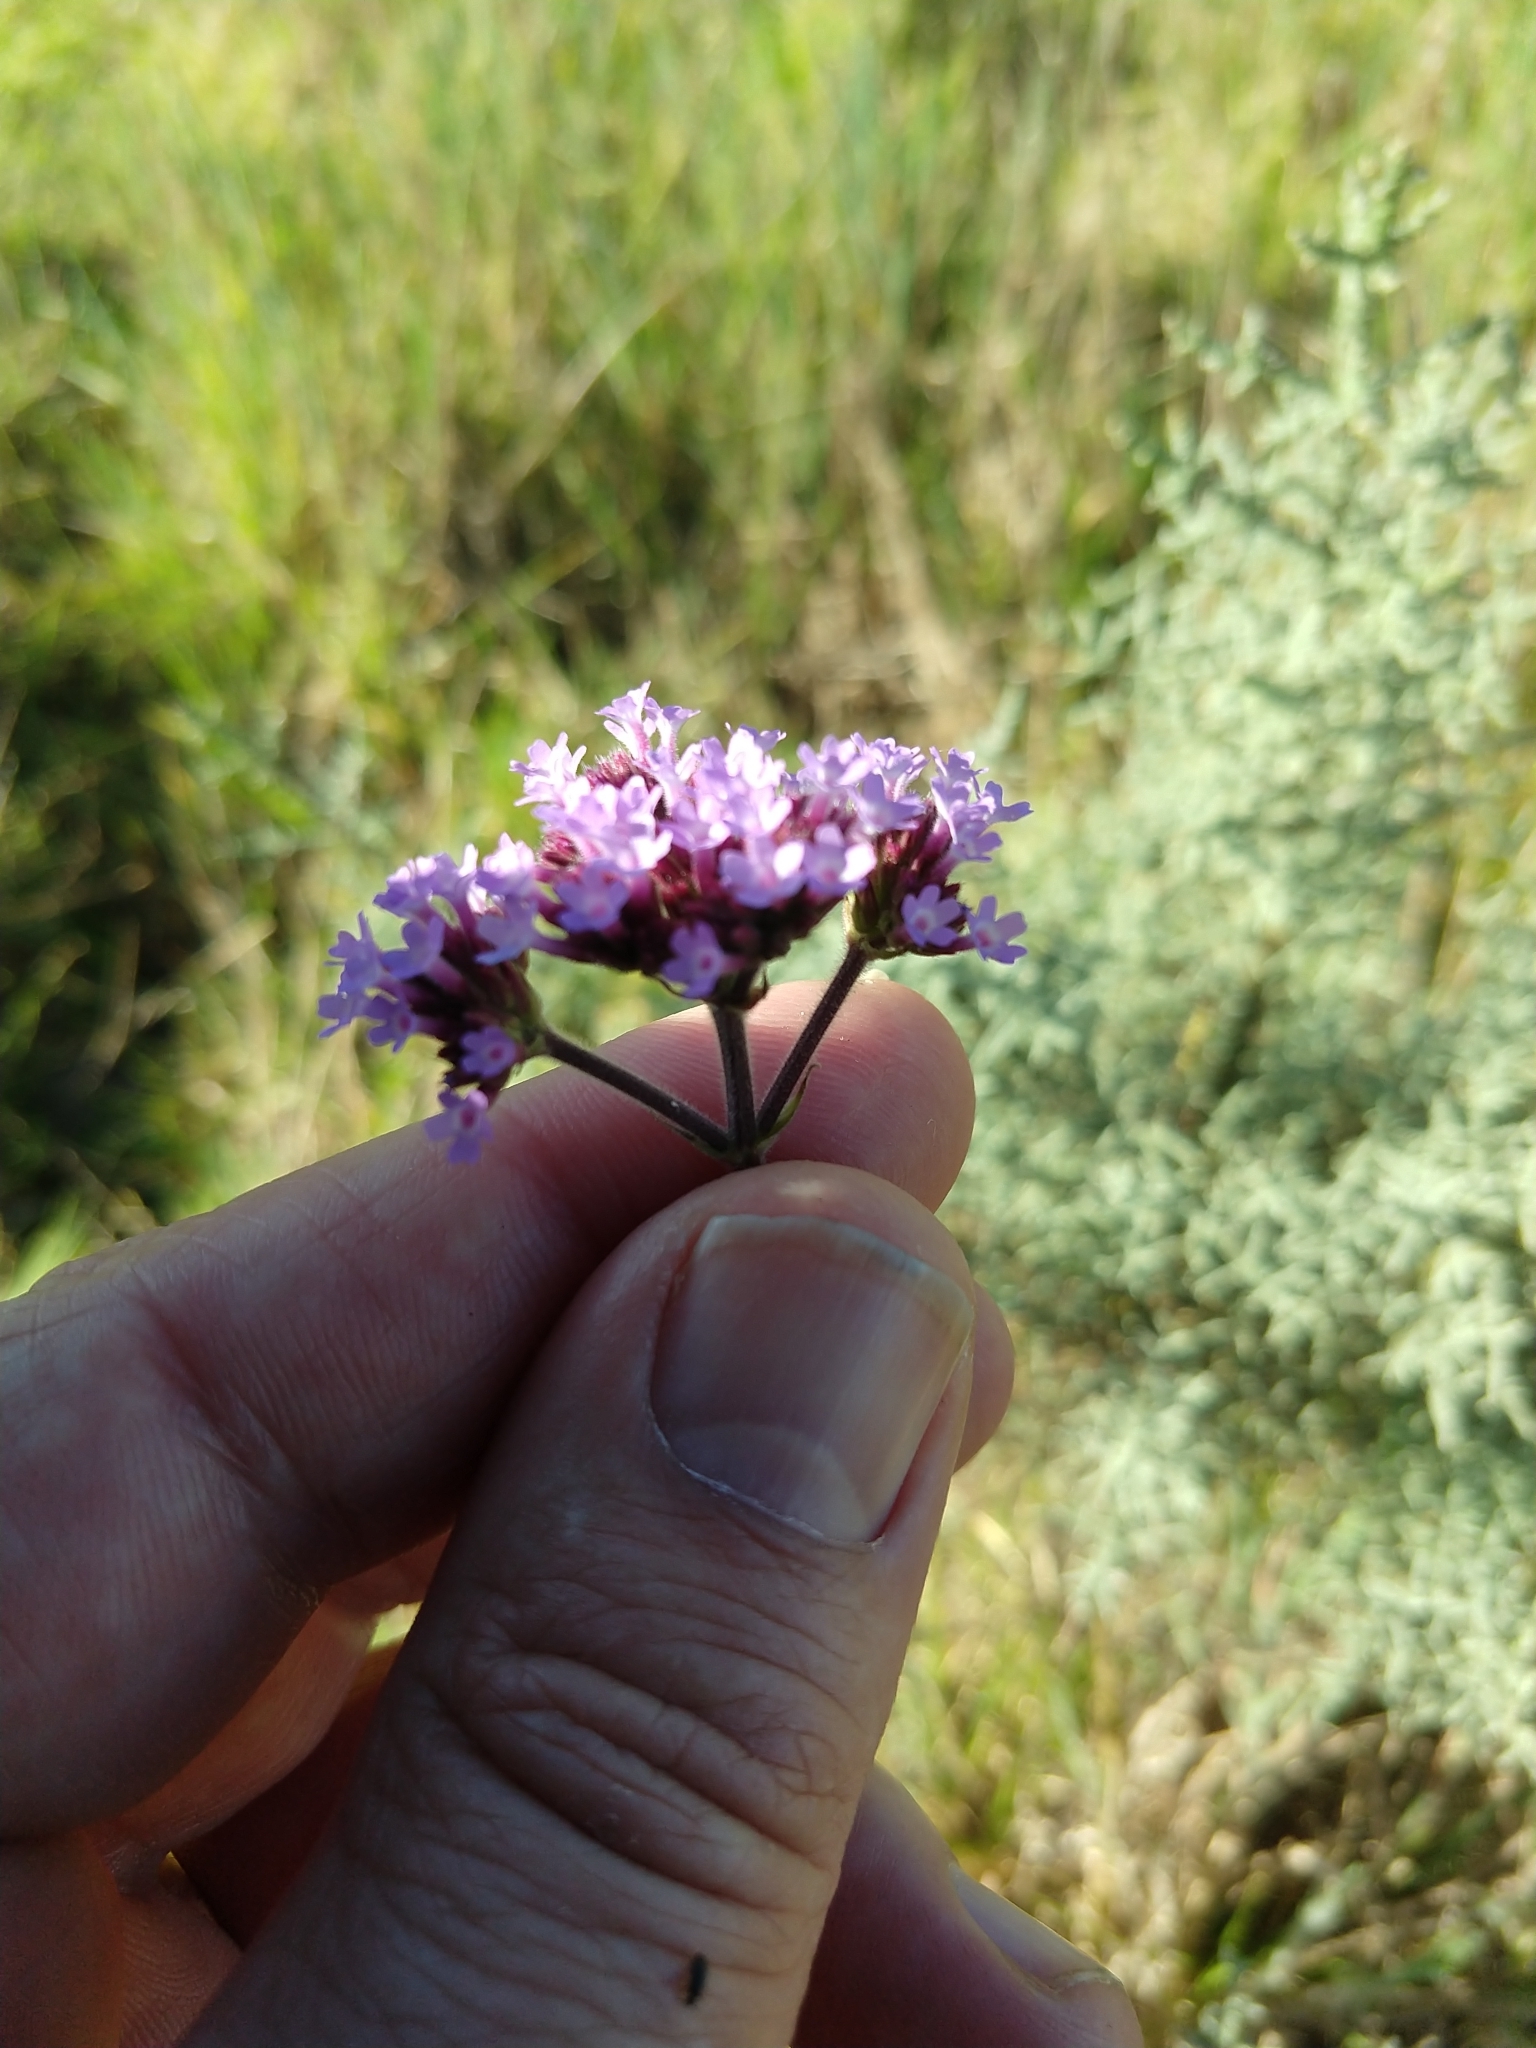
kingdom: Plantae
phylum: Tracheophyta
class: Magnoliopsida
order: Lamiales
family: Verbenaceae
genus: Verbena
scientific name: Verbena bonariensis
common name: Purpletop vervain
